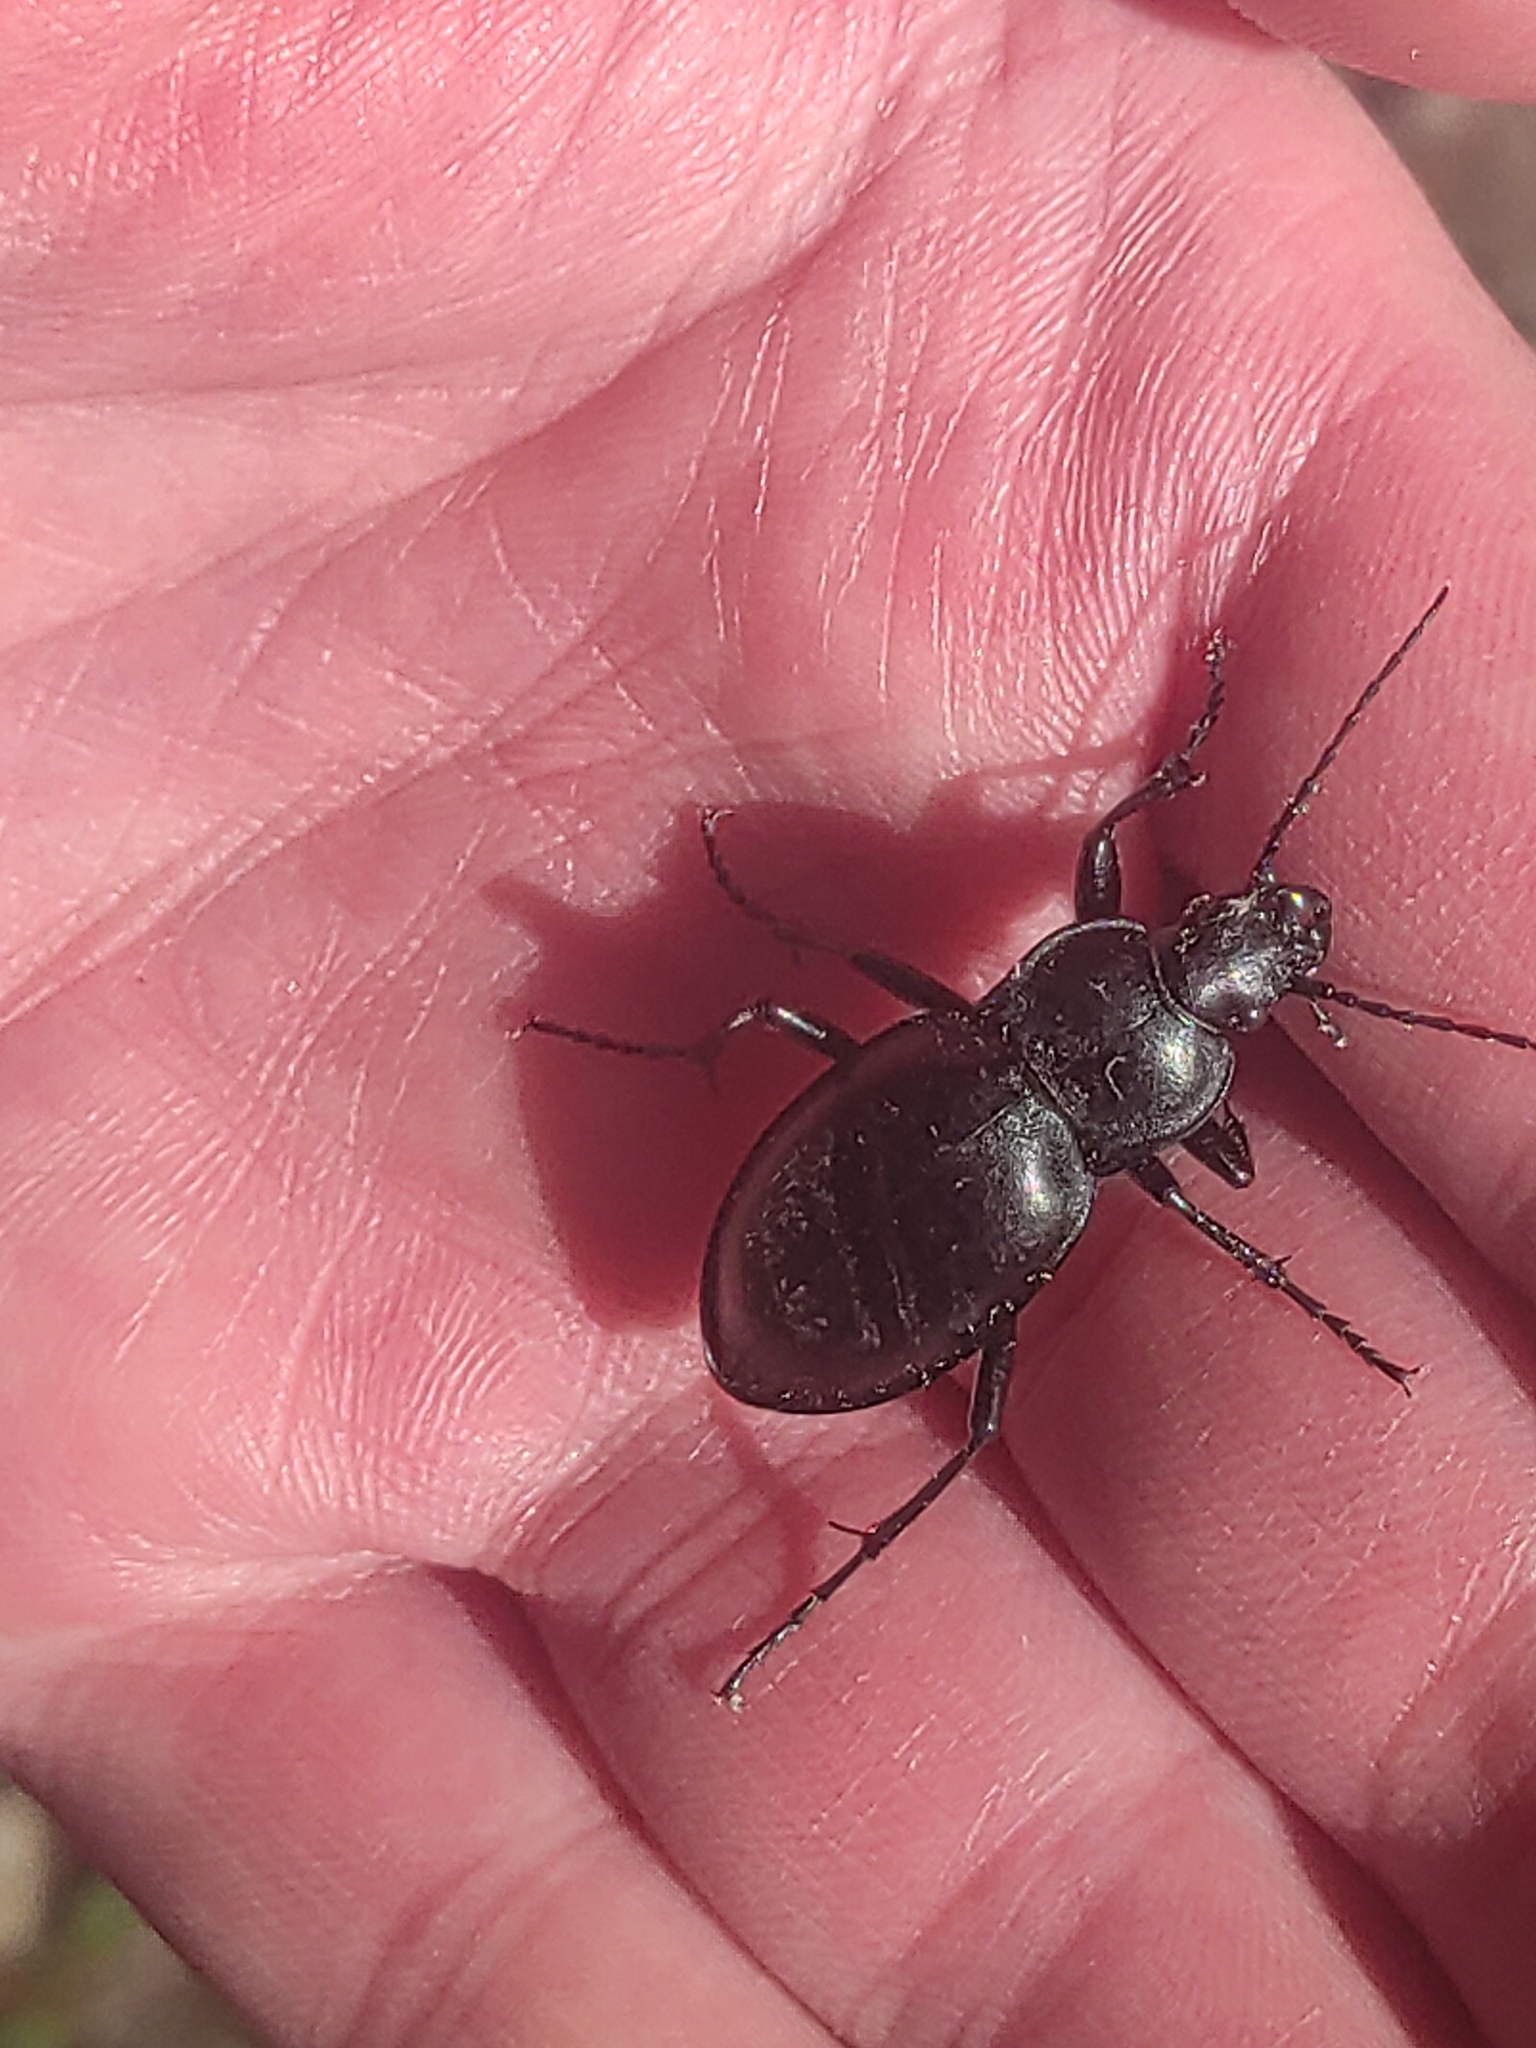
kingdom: Animalia
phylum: Arthropoda
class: Insecta
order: Coleoptera
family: Carabidae
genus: Carabus
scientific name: Carabus glabratus
